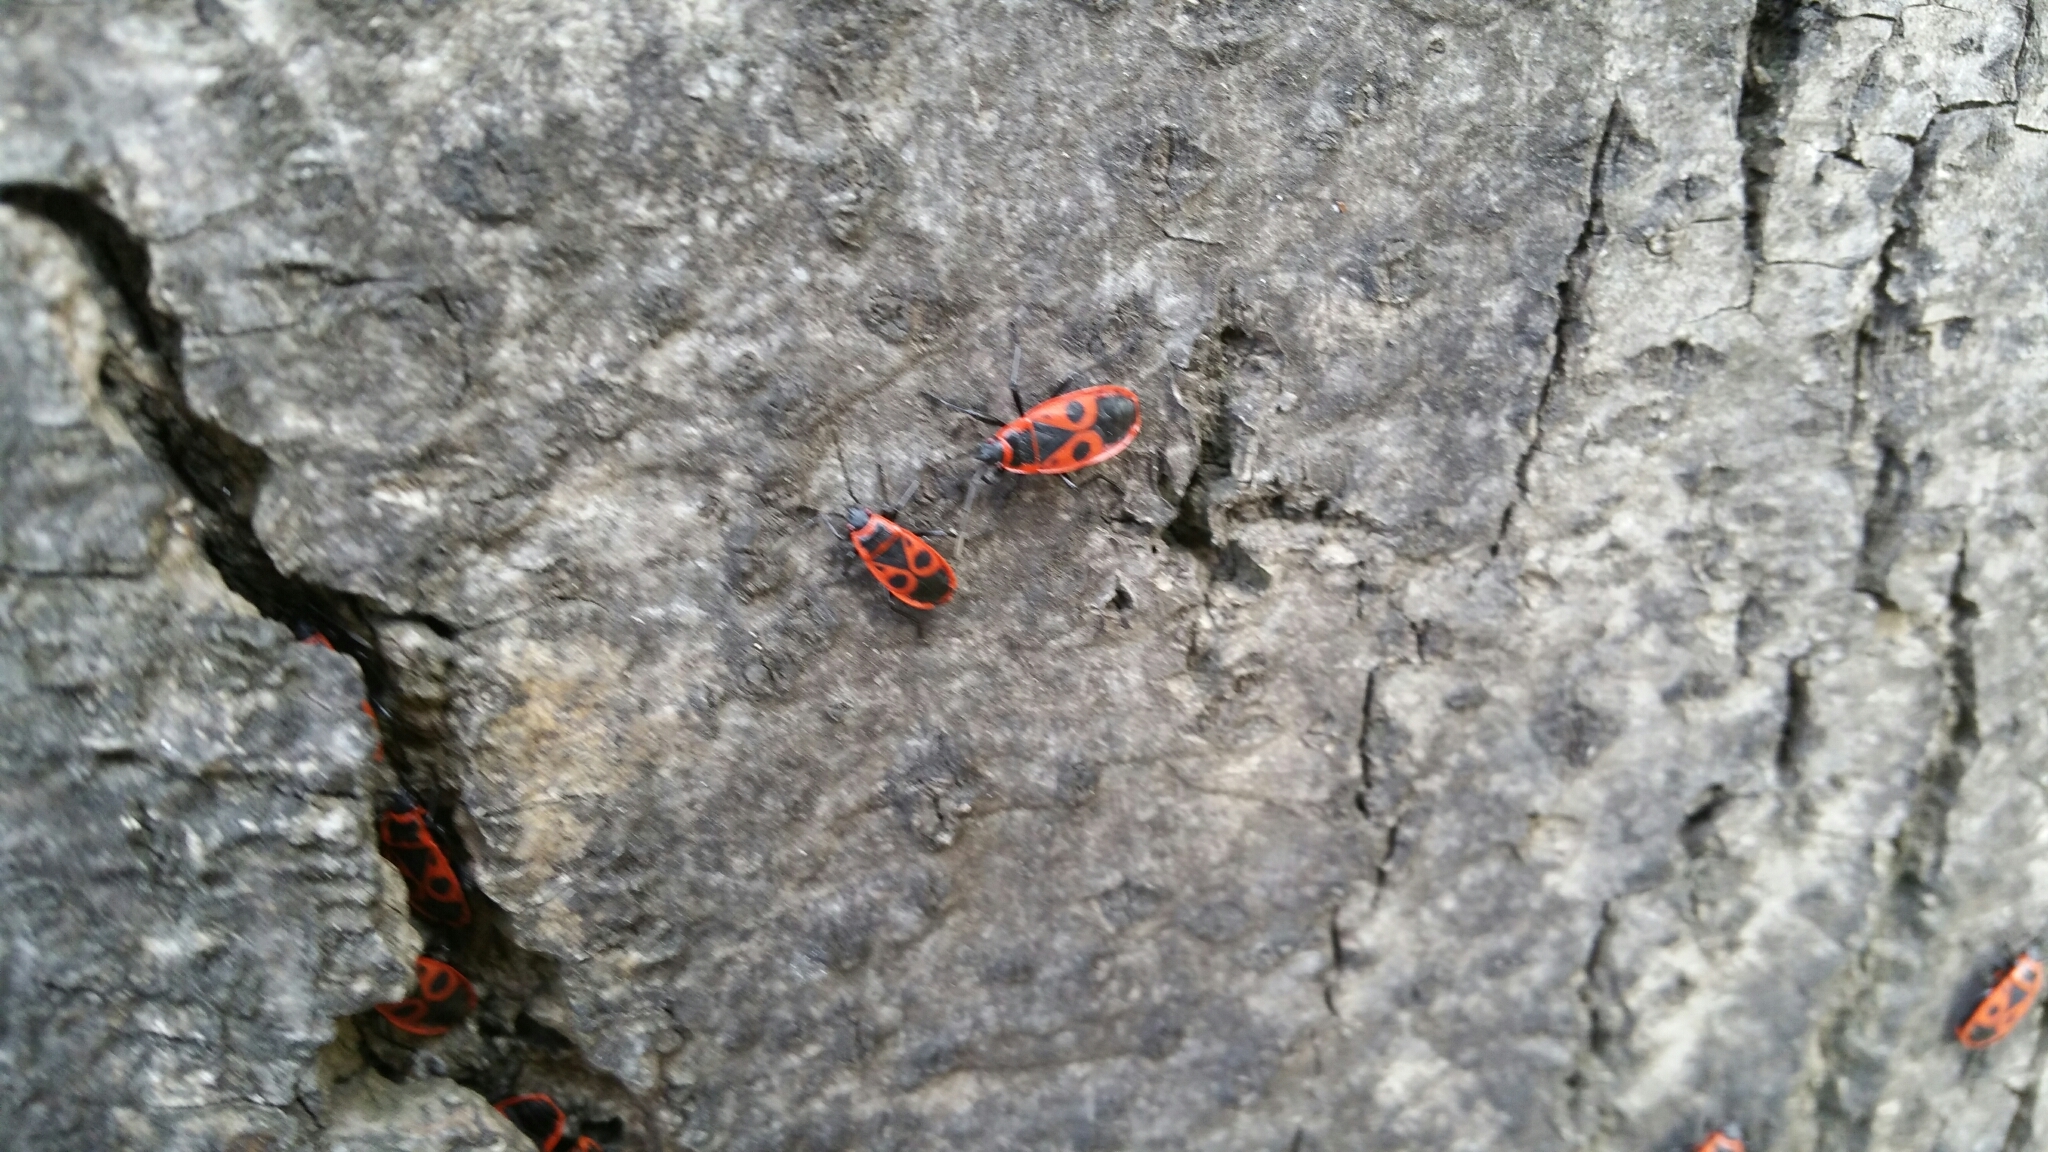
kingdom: Animalia
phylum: Arthropoda
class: Insecta
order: Hemiptera
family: Pyrrhocoridae
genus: Pyrrhocoris
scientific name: Pyrrhocoris apterus
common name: Firebug
